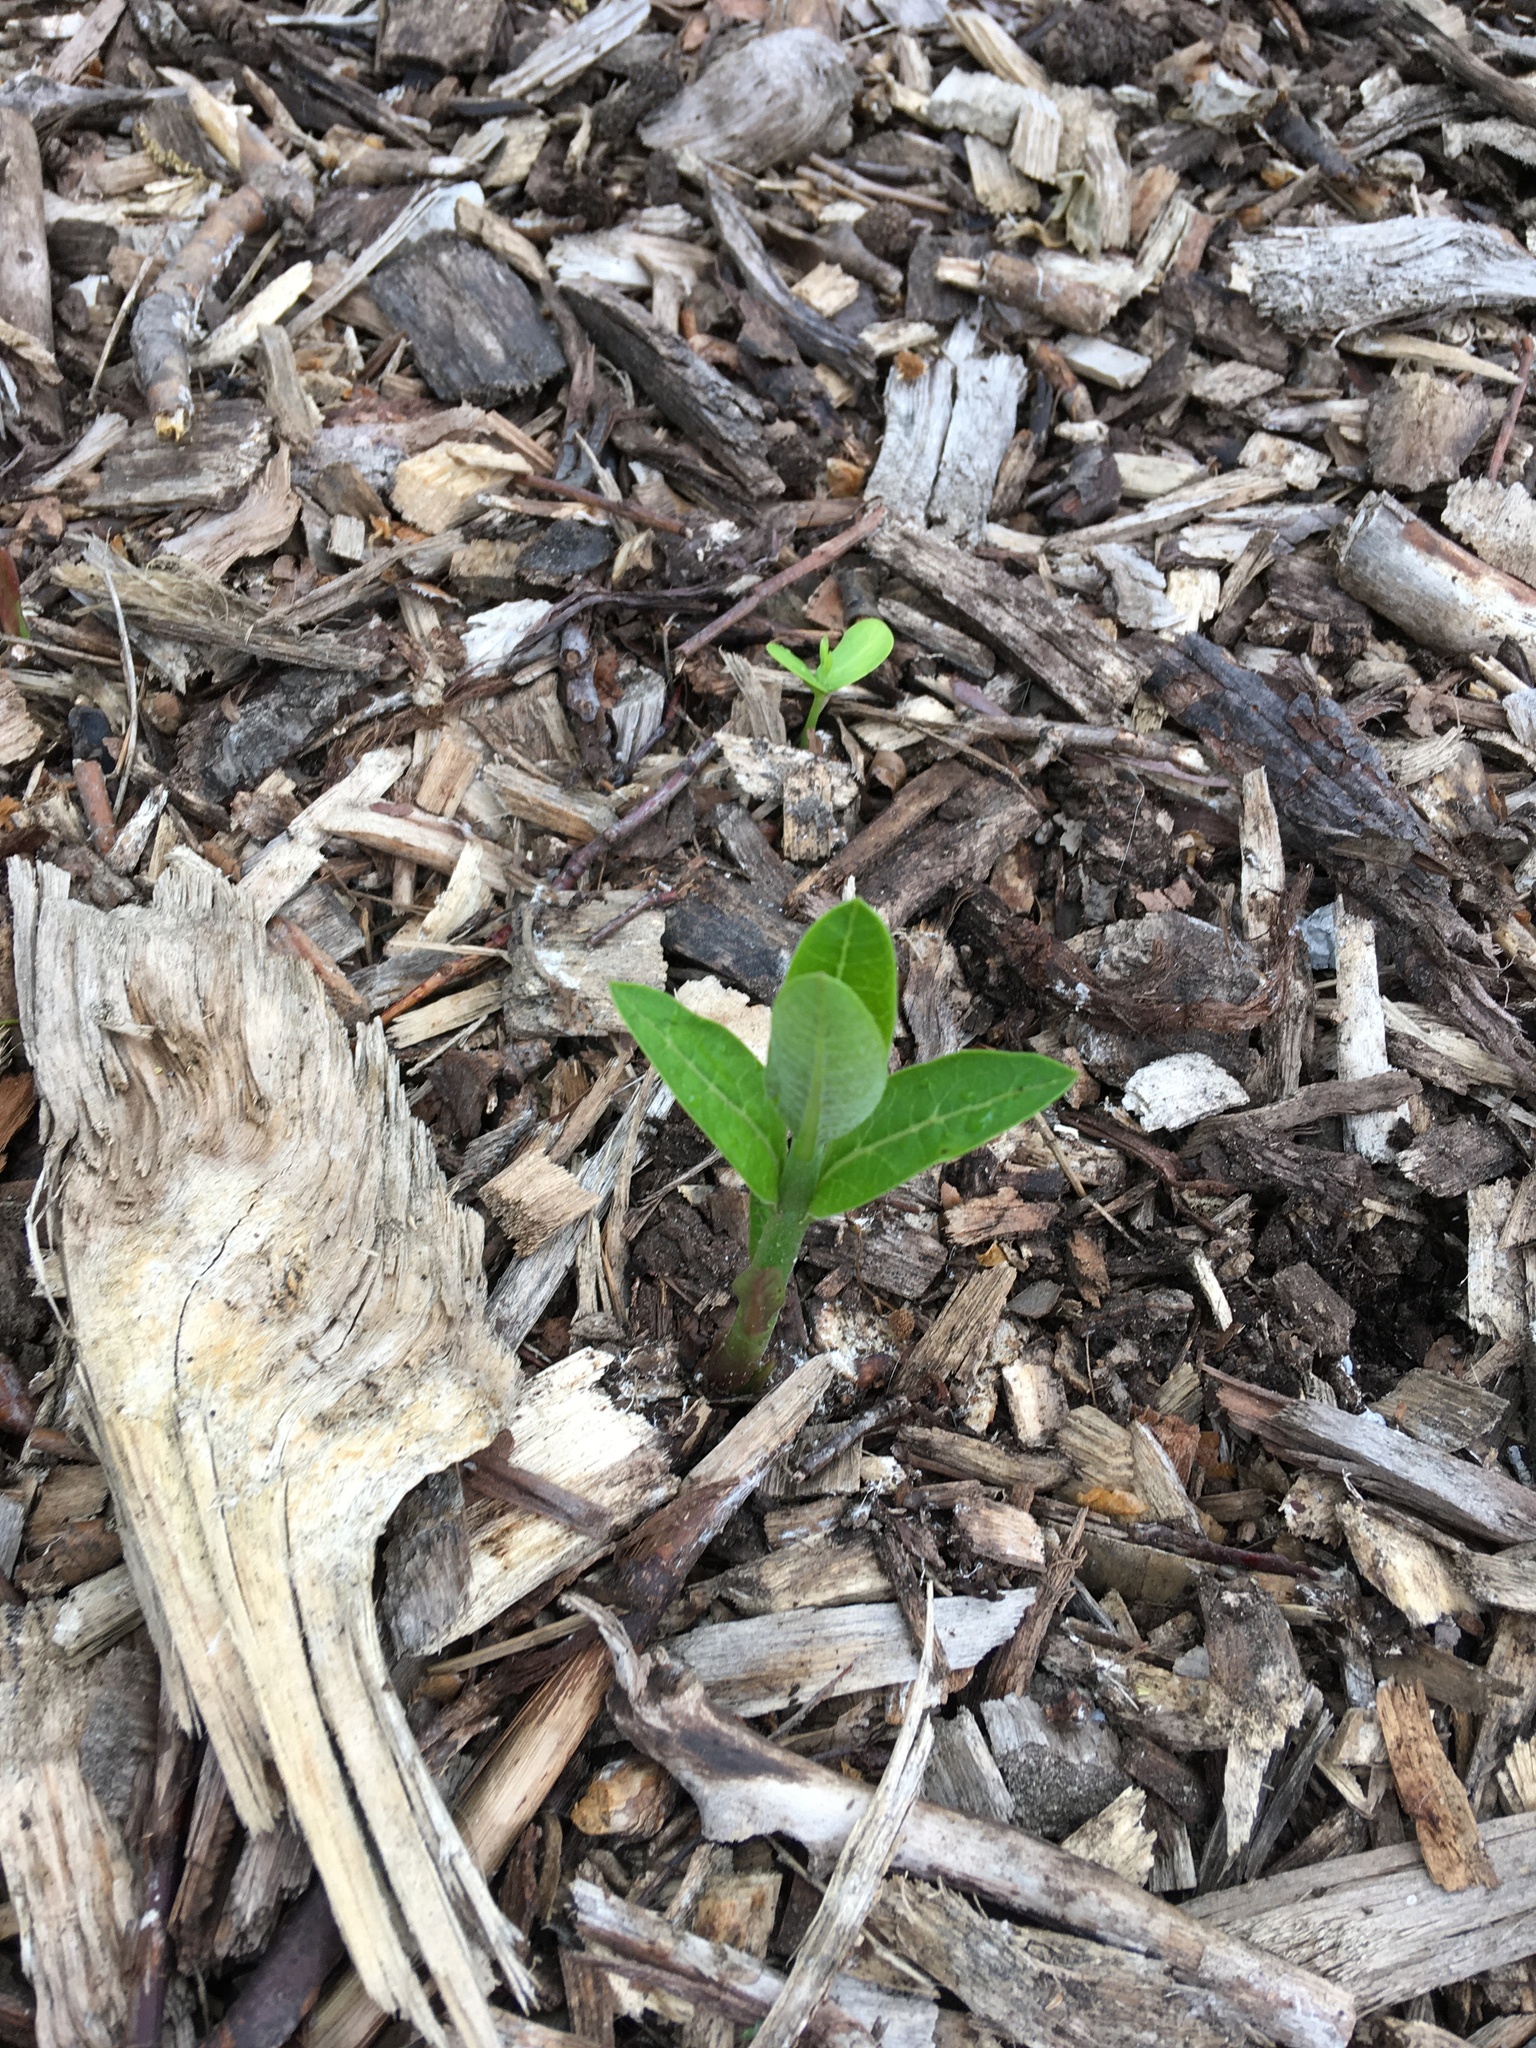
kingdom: Plantae
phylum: Tracheophyta
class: Magnoliopsida
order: Gentianales
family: Apocynaceae
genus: Asclepias
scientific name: Asclepias syriaca
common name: Common milkweed
